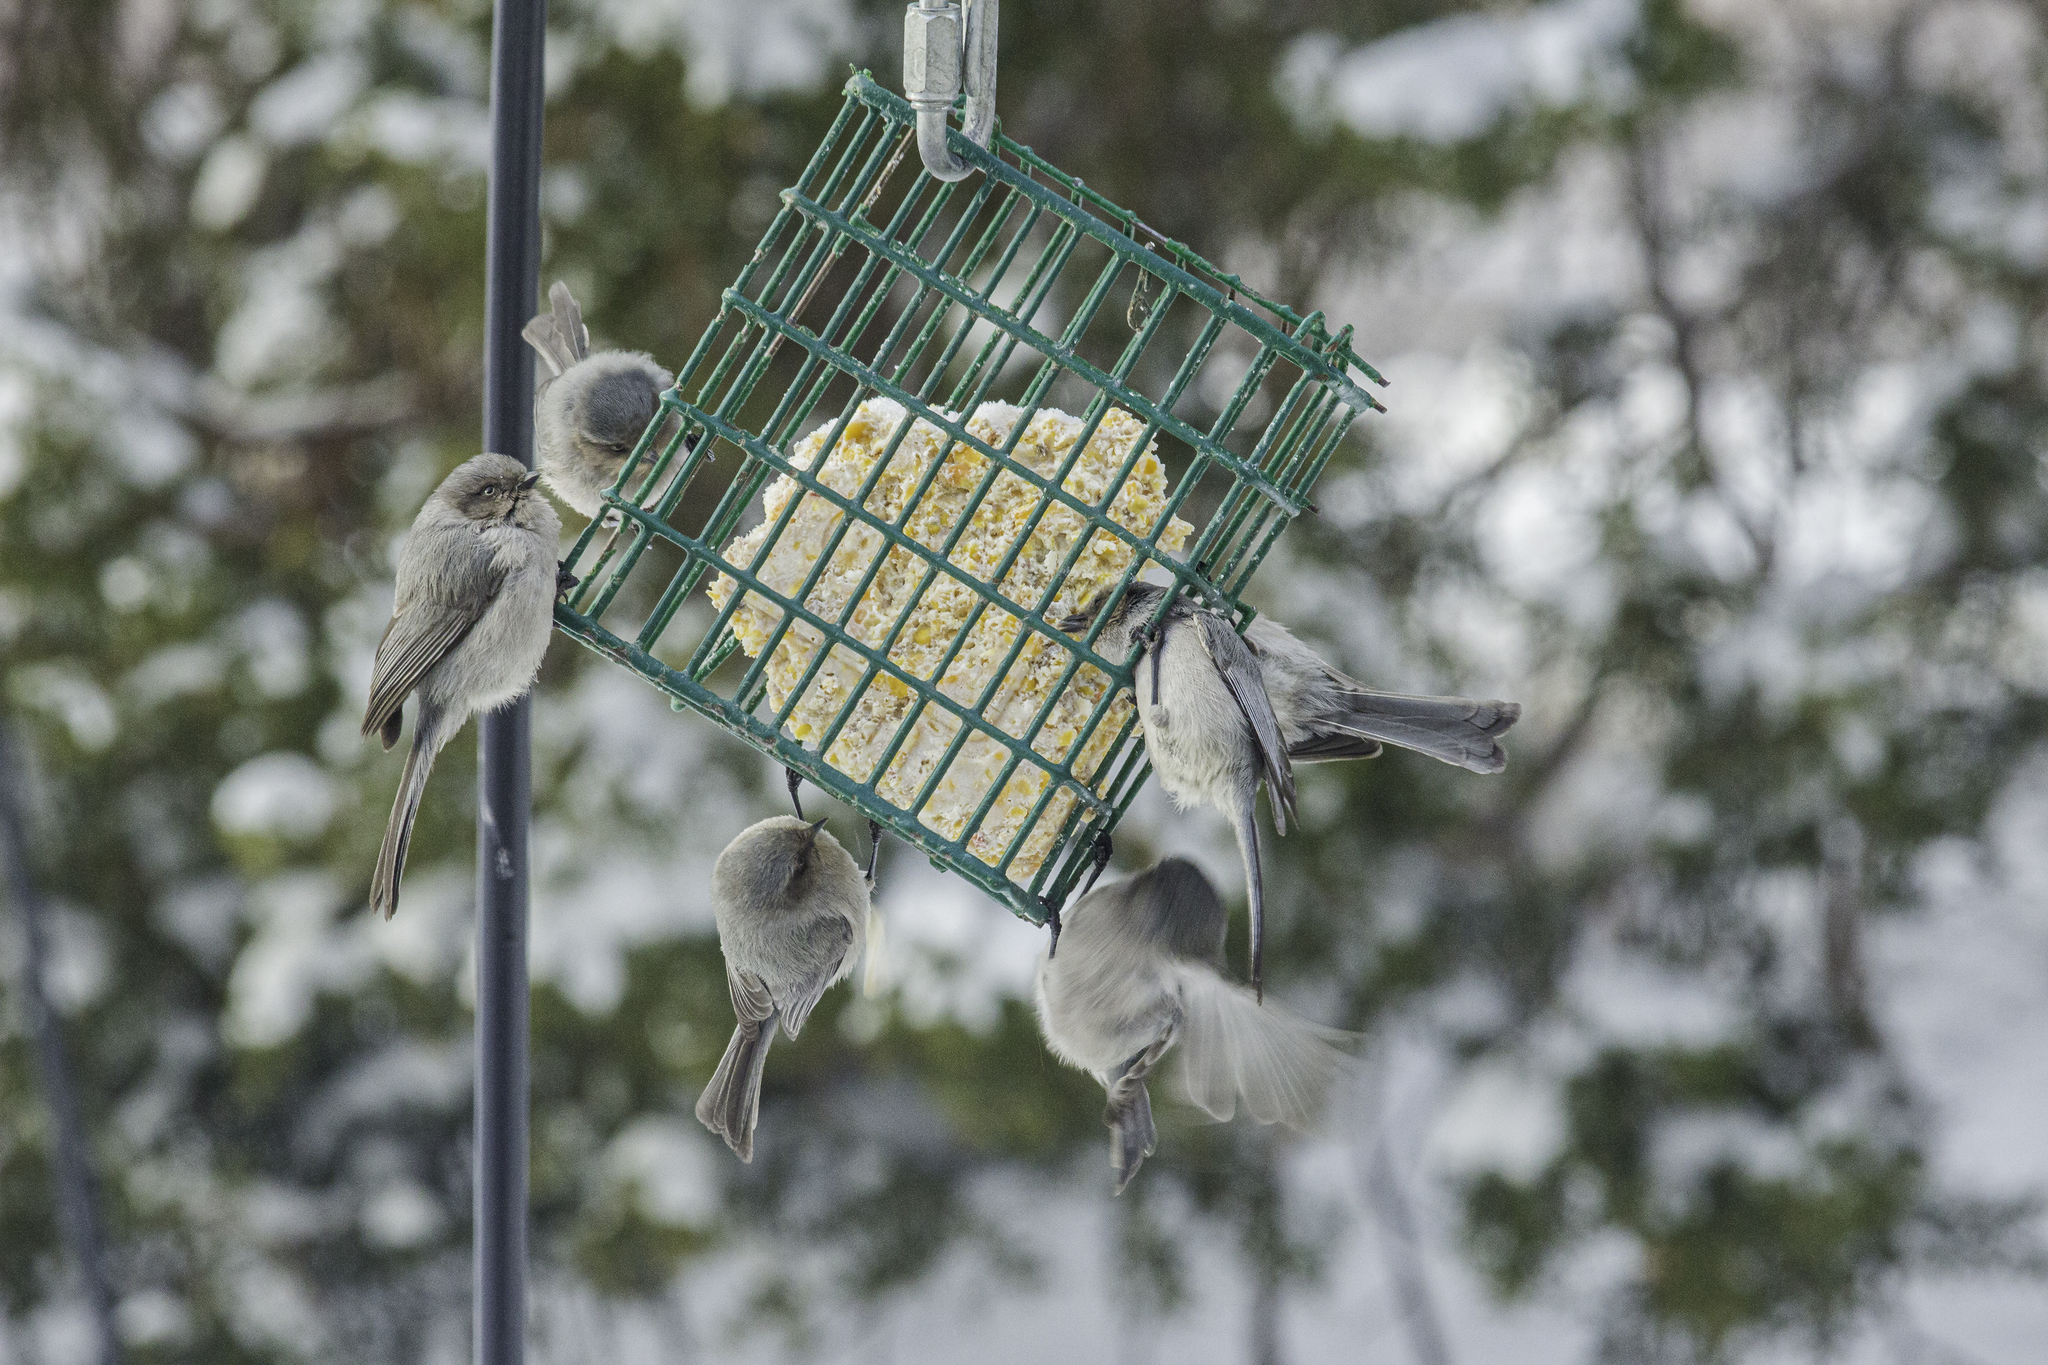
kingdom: Animalia
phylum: Chordata
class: Aves
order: Passeriformes
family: Aegithalidae
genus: Psaltriparus
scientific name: Psaltriparus minimus
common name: American bushtit
